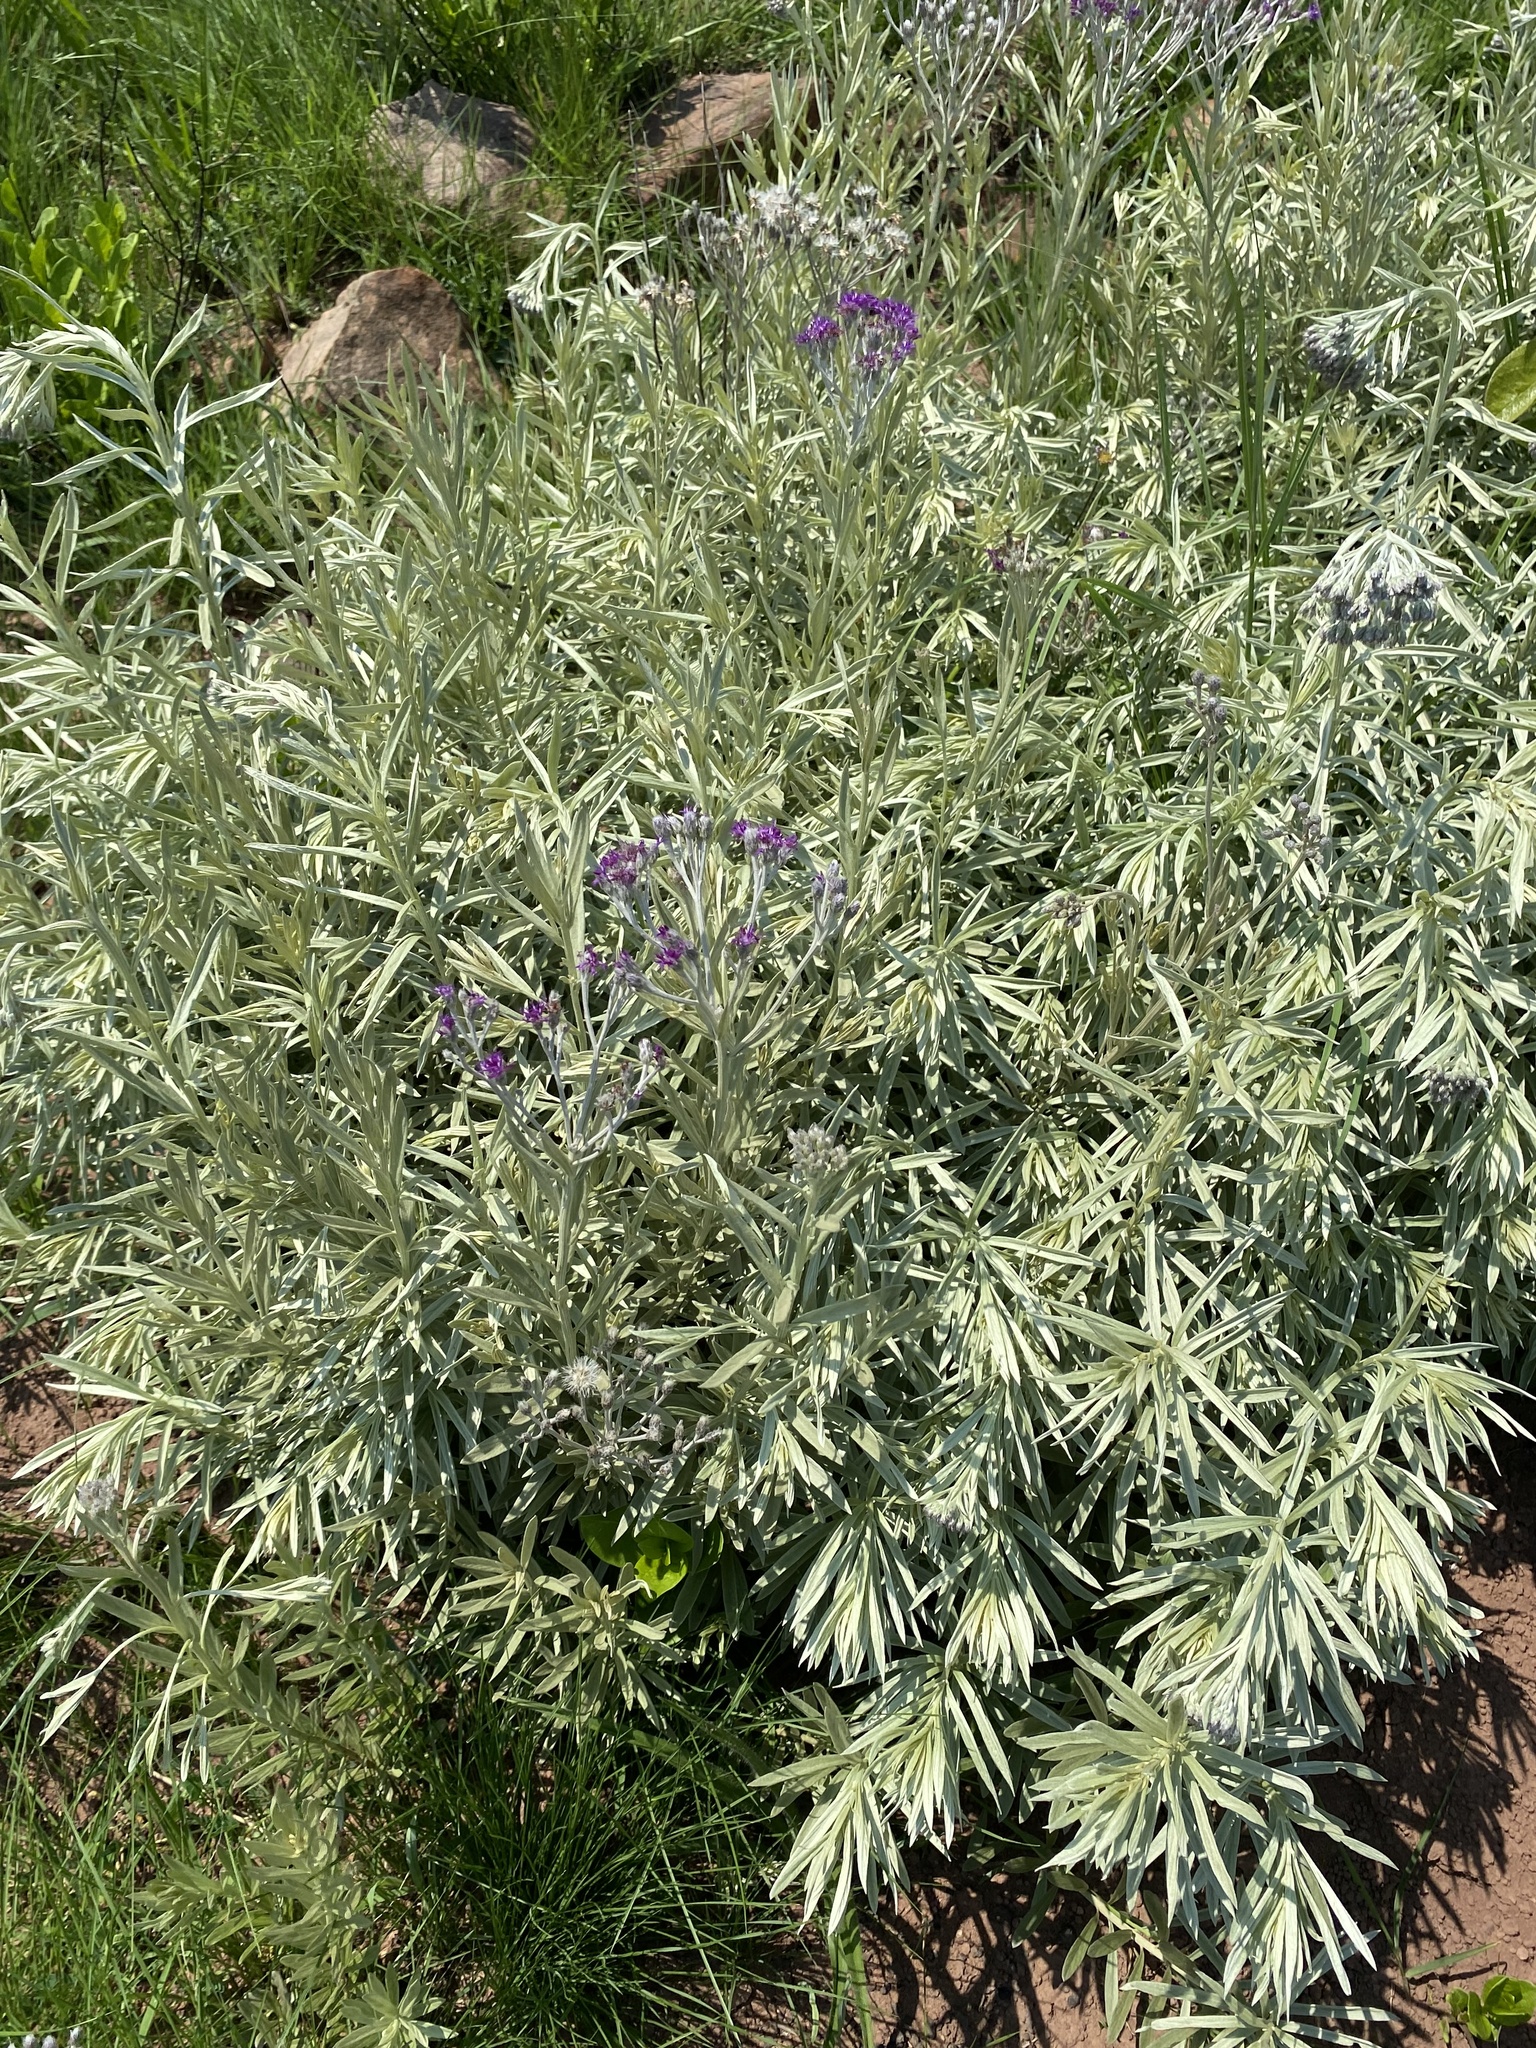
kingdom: Plantae
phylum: Tracheophyta
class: Magnoliopsida
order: Asterales
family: Asteraceae
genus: Hilliardiella
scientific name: Hilliardiella aristata
